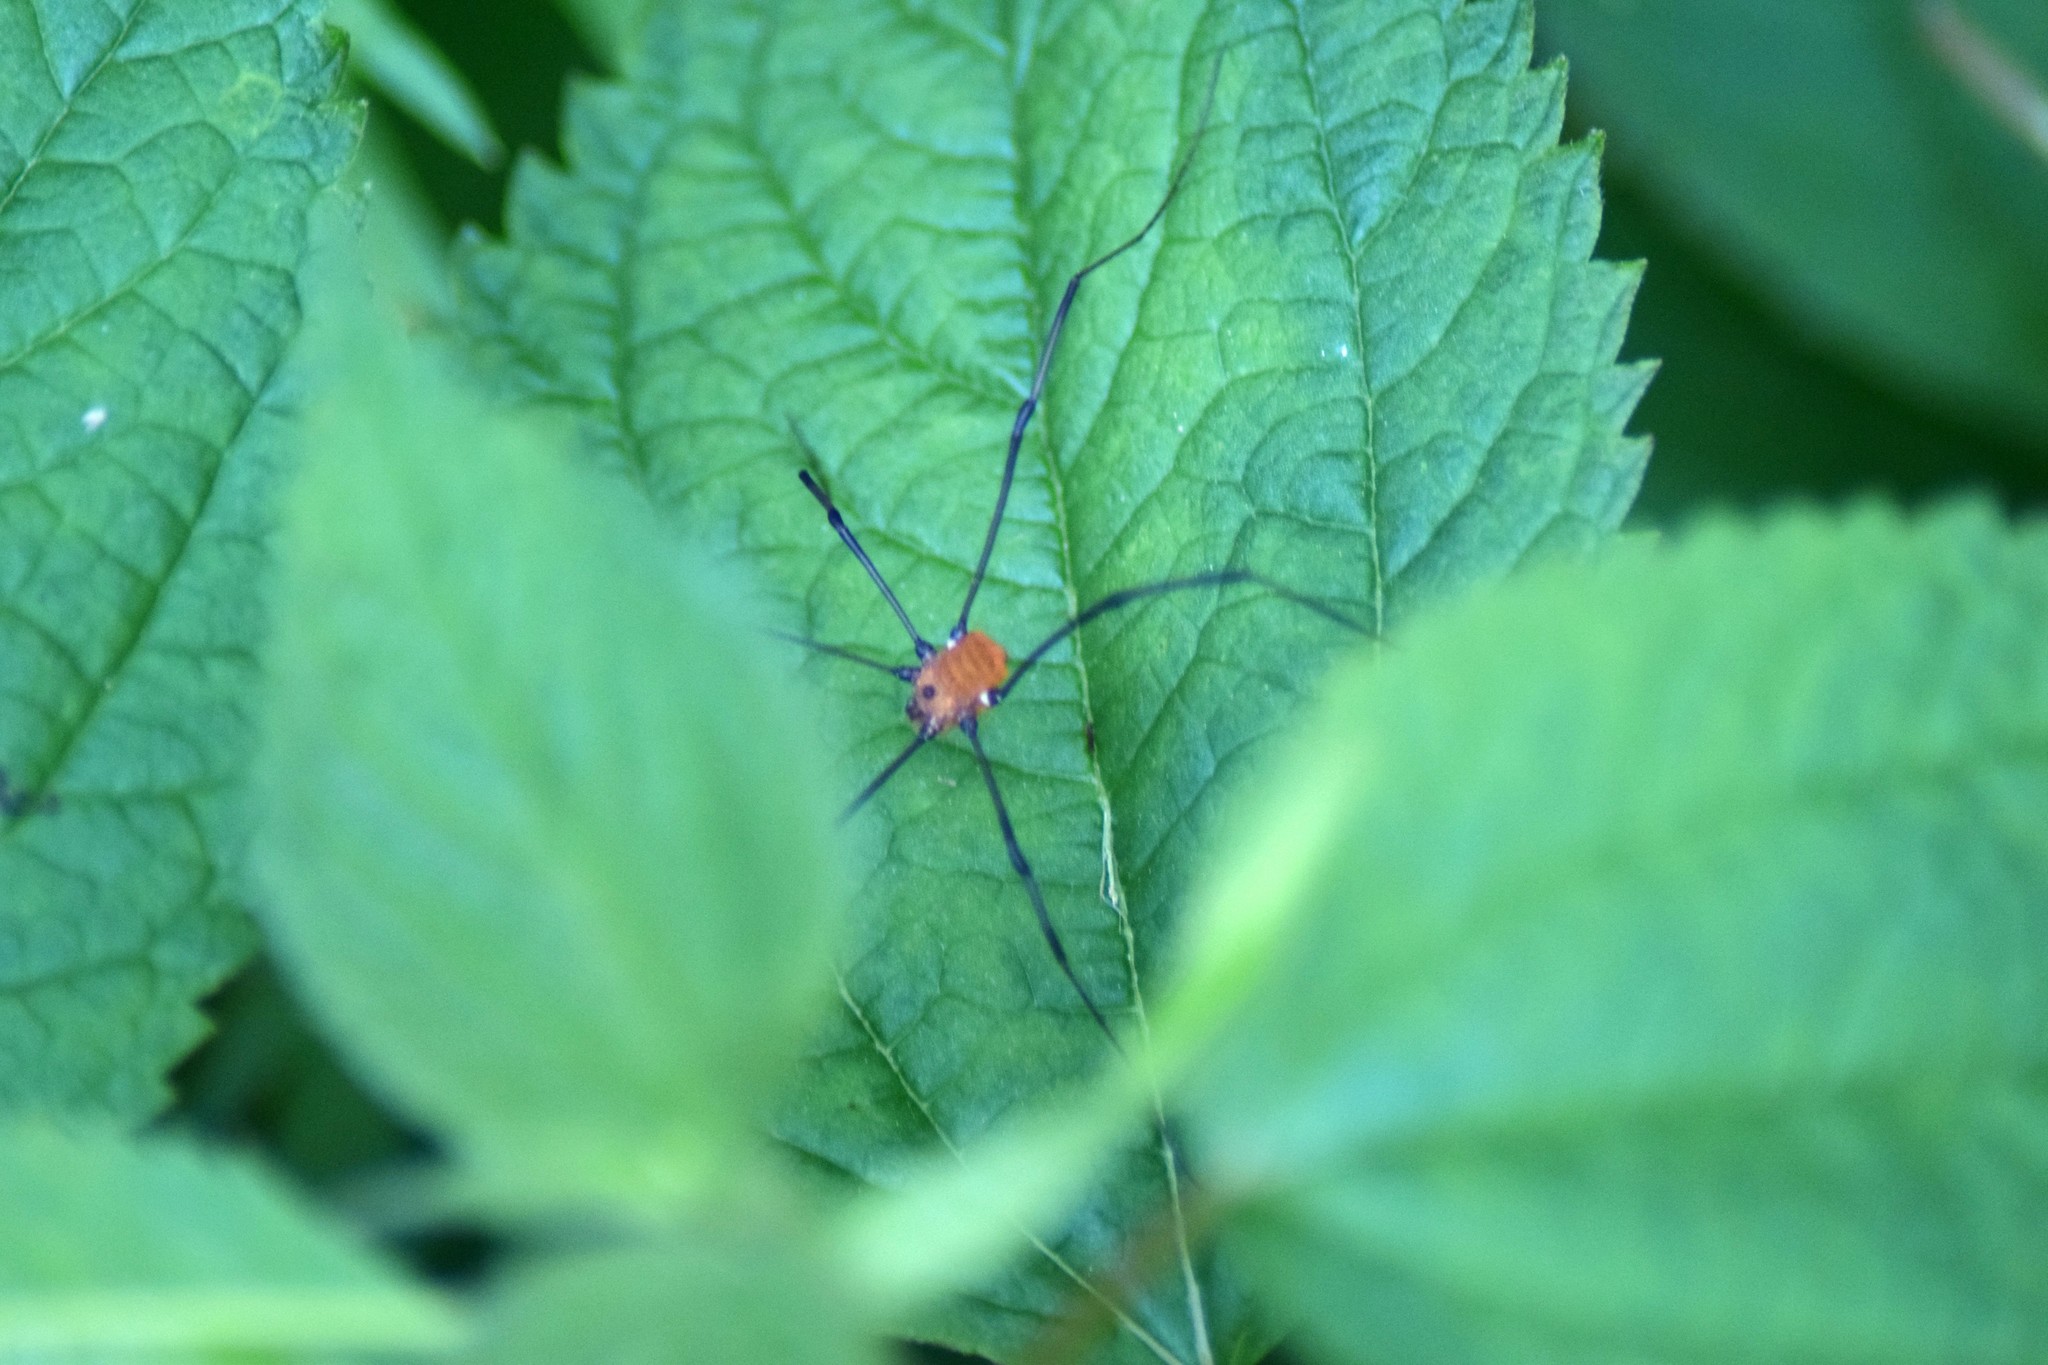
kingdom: Animalia
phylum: Arthropoda
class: Arachnida
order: Opiliones
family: Sclerosomatidae
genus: Leiobunum
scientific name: Leiobunum verrucosum
